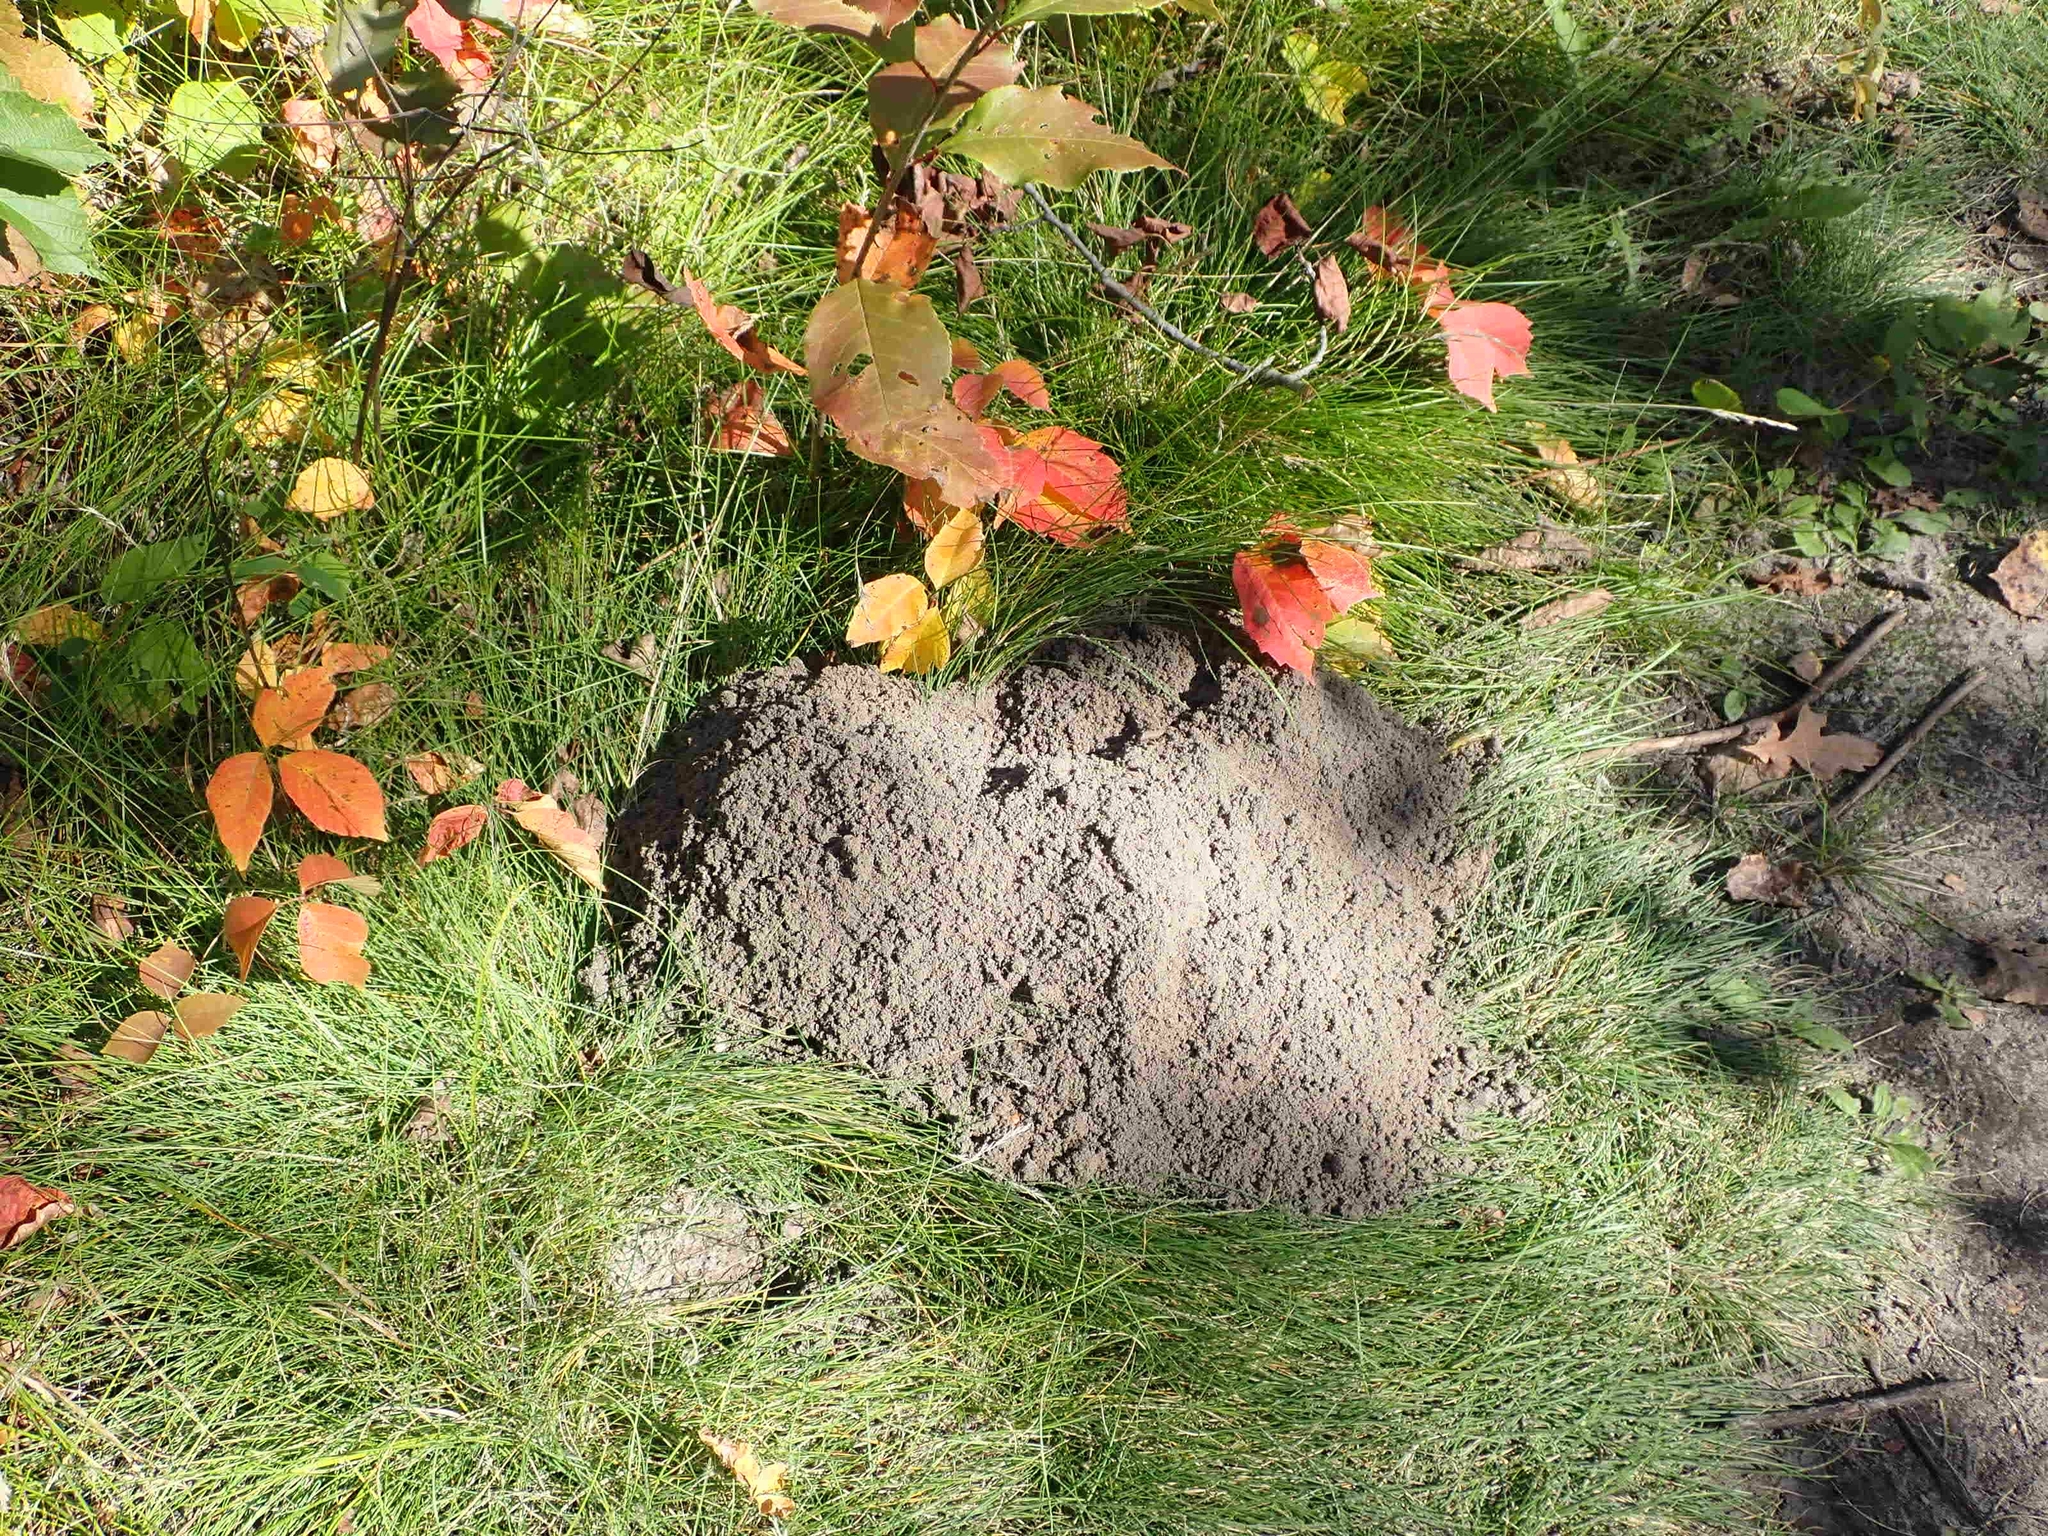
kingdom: Animalia
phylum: Chordata
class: Mammalia
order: Rodentia
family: Geomyidae
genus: Thomomys
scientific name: Thomomys talpoides
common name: Northern pocket gopher
